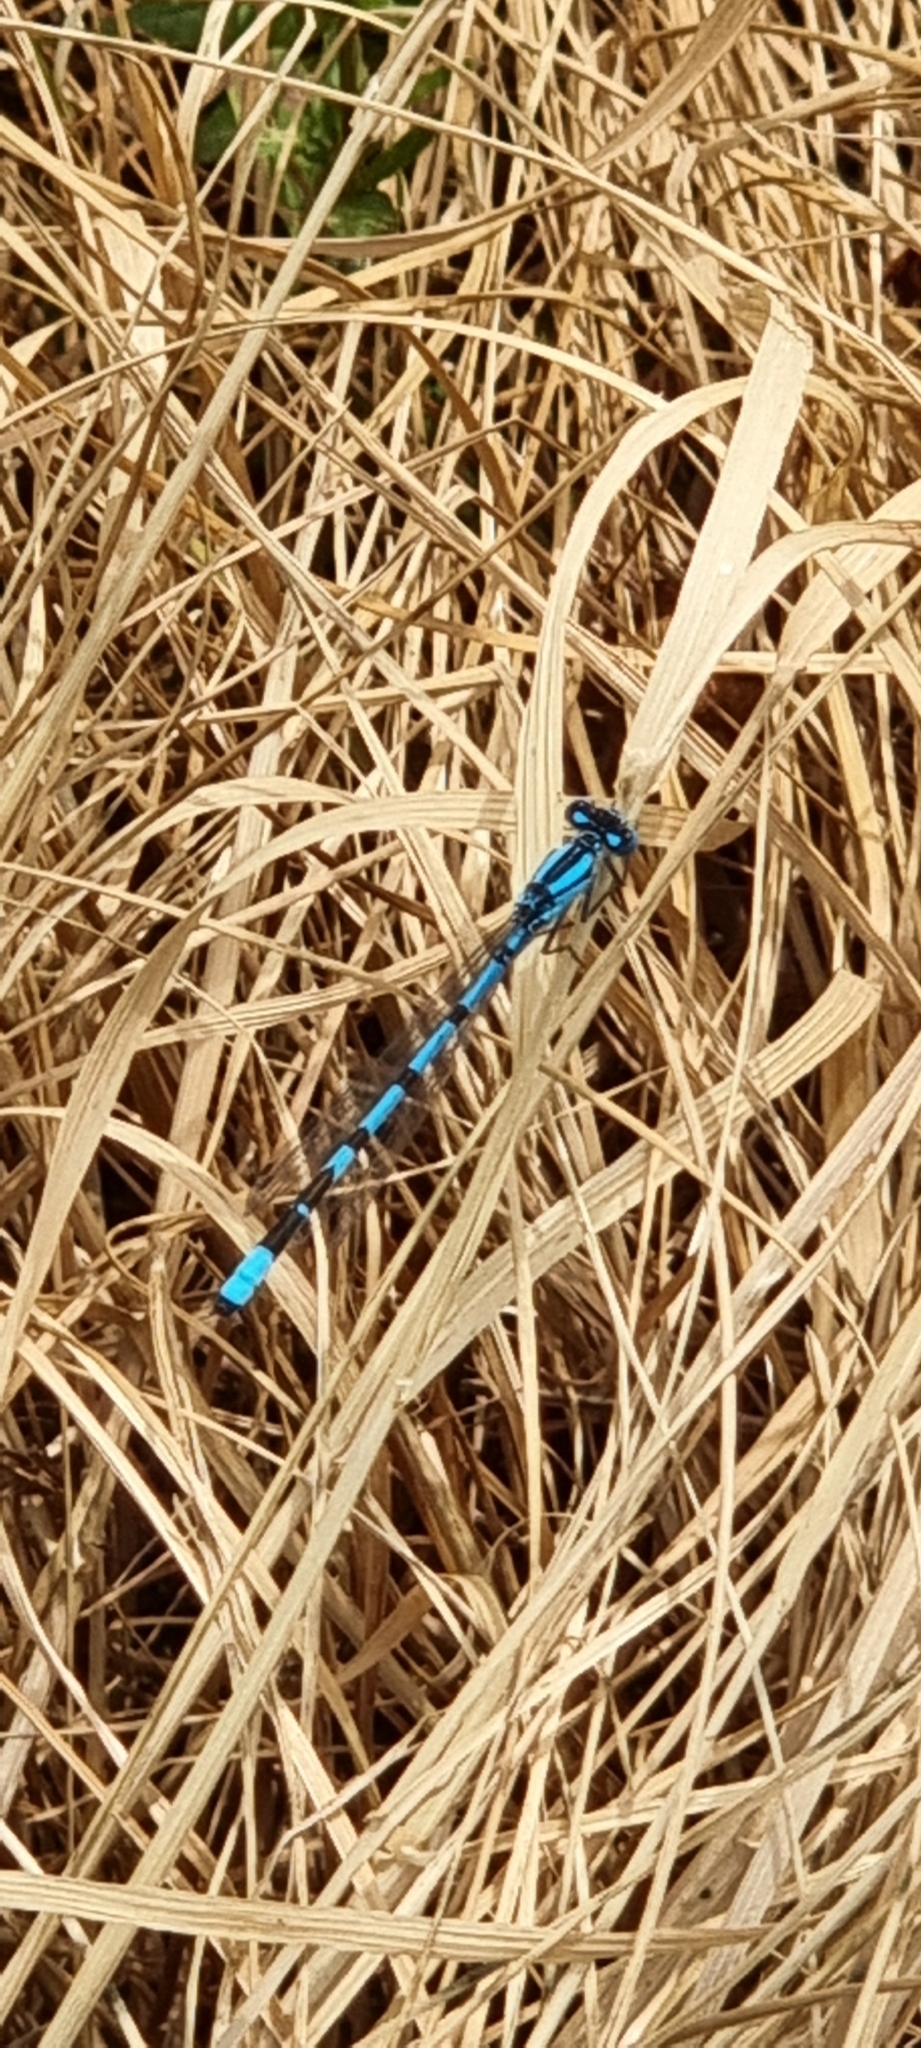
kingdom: Animalia
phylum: Arthropoda
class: Insecta
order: Odonata
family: Coenagrionidae
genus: Enallagma
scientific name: Enallagma cyathigerum
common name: Common blue damselfly
